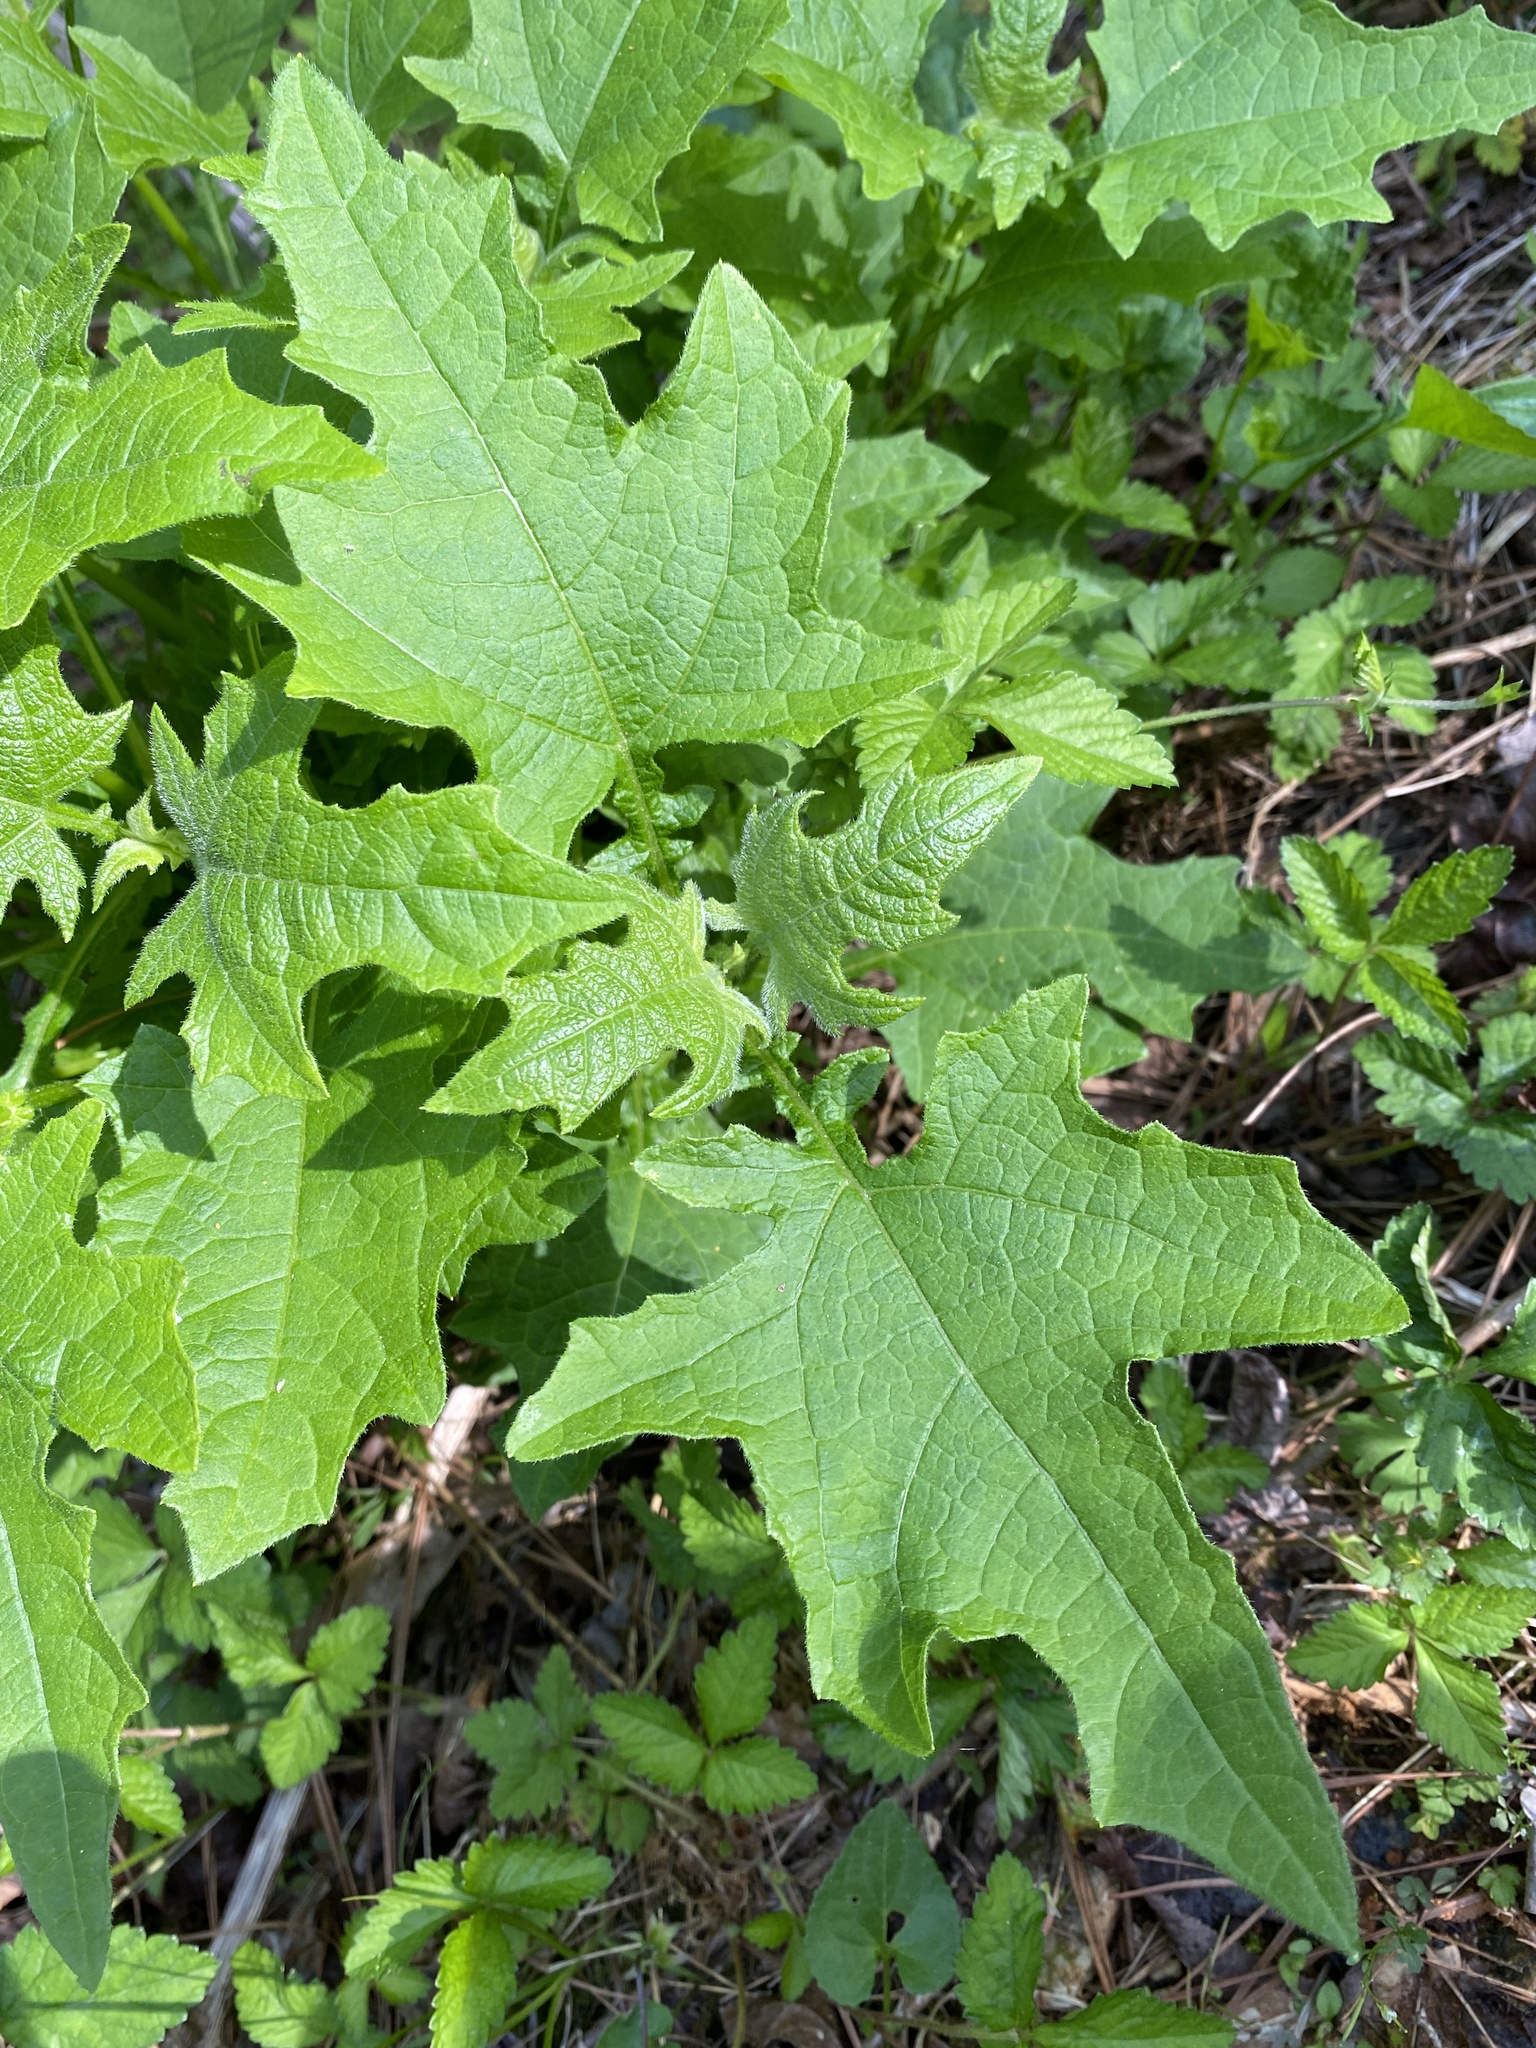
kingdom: Plantae
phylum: Tracheophyta
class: Magnoliopsida
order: Asterales
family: Asteraceae
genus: Smallanthus
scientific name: Smallanthus uvedalia
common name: Bear's-foot
